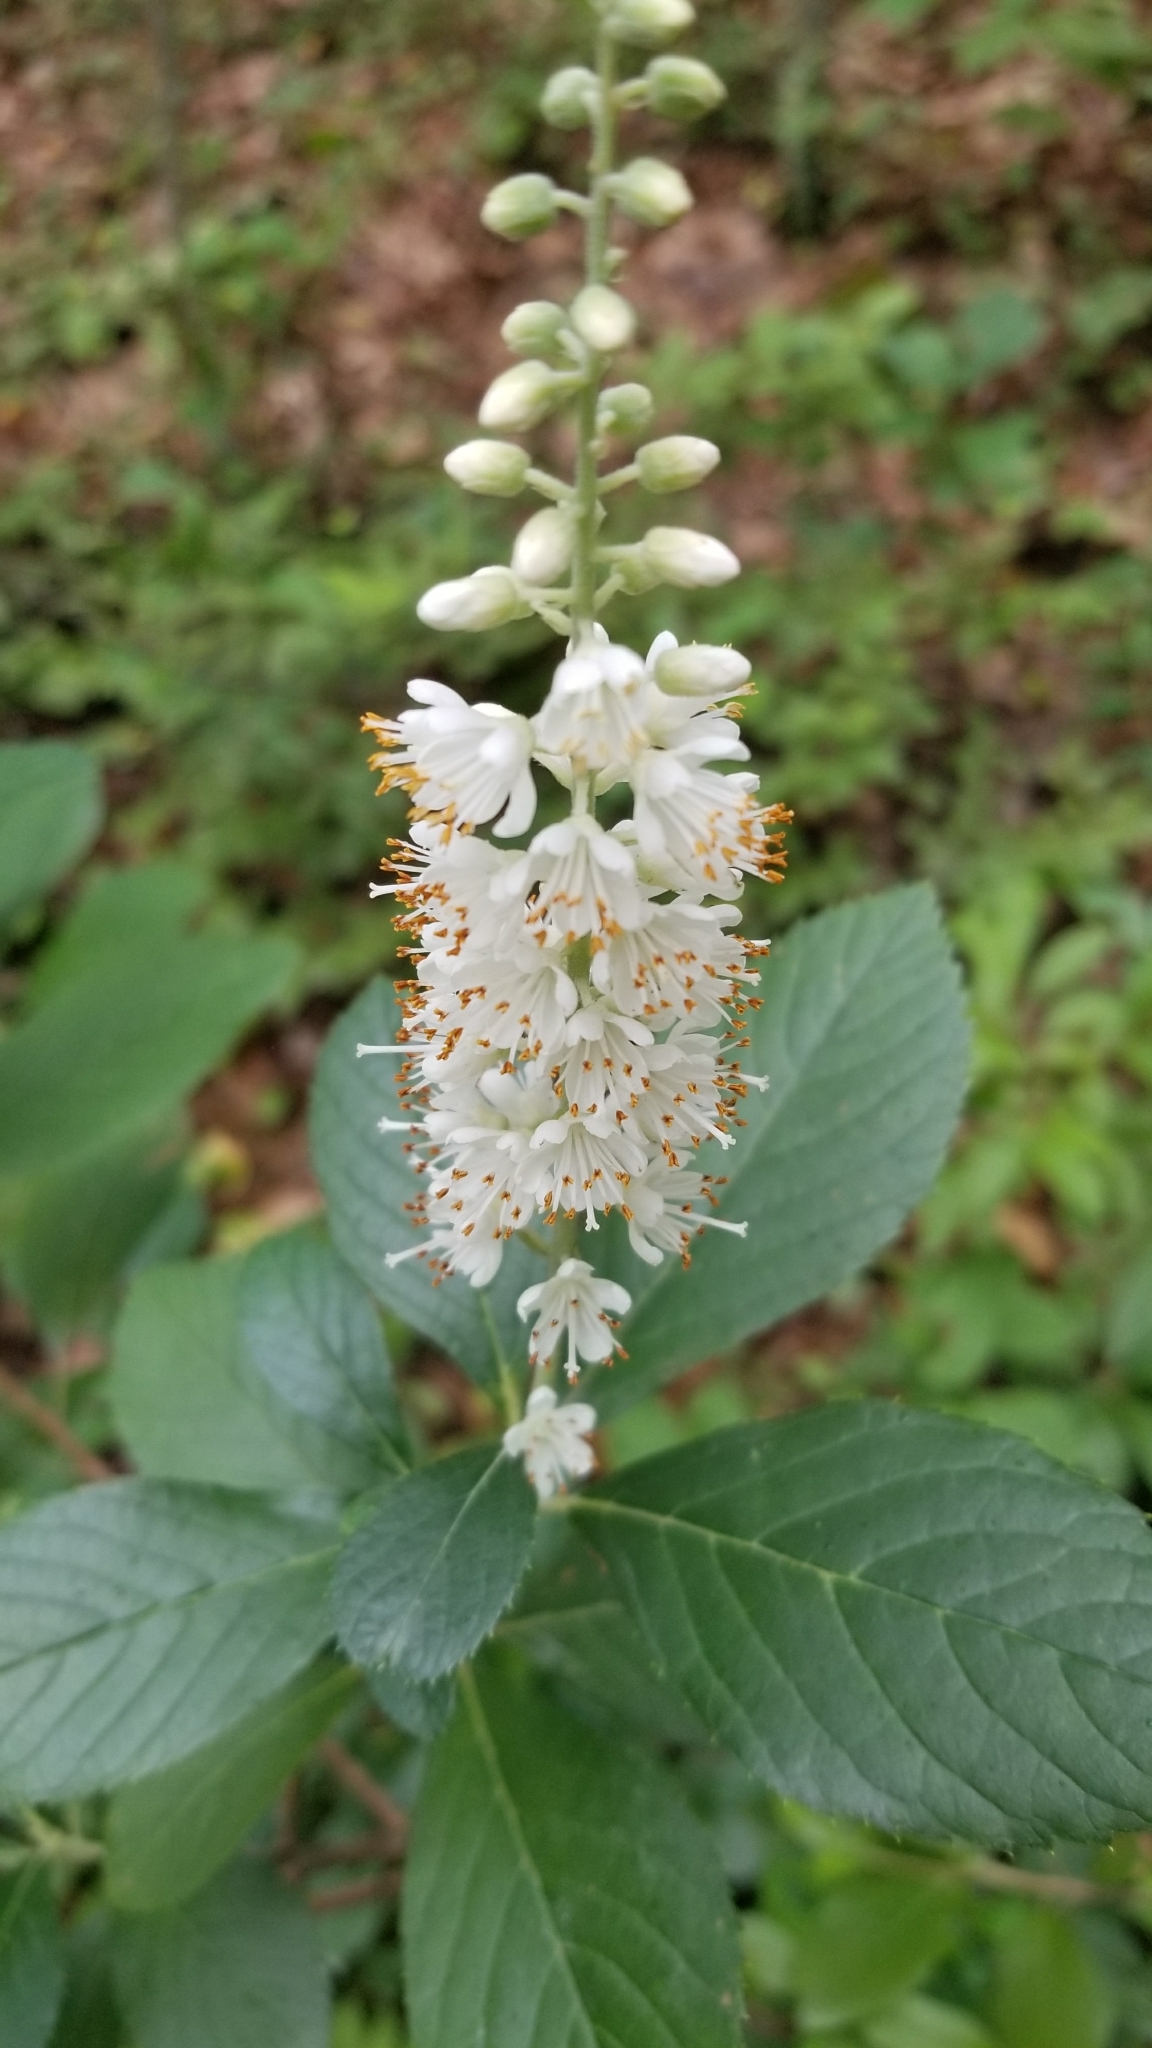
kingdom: Plantae
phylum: Tracheophyta
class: Magnoliopsida
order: Ericales
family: Clethraceae
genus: Clethra
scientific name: Clethra alnifolia
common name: Sweet pepperbush
